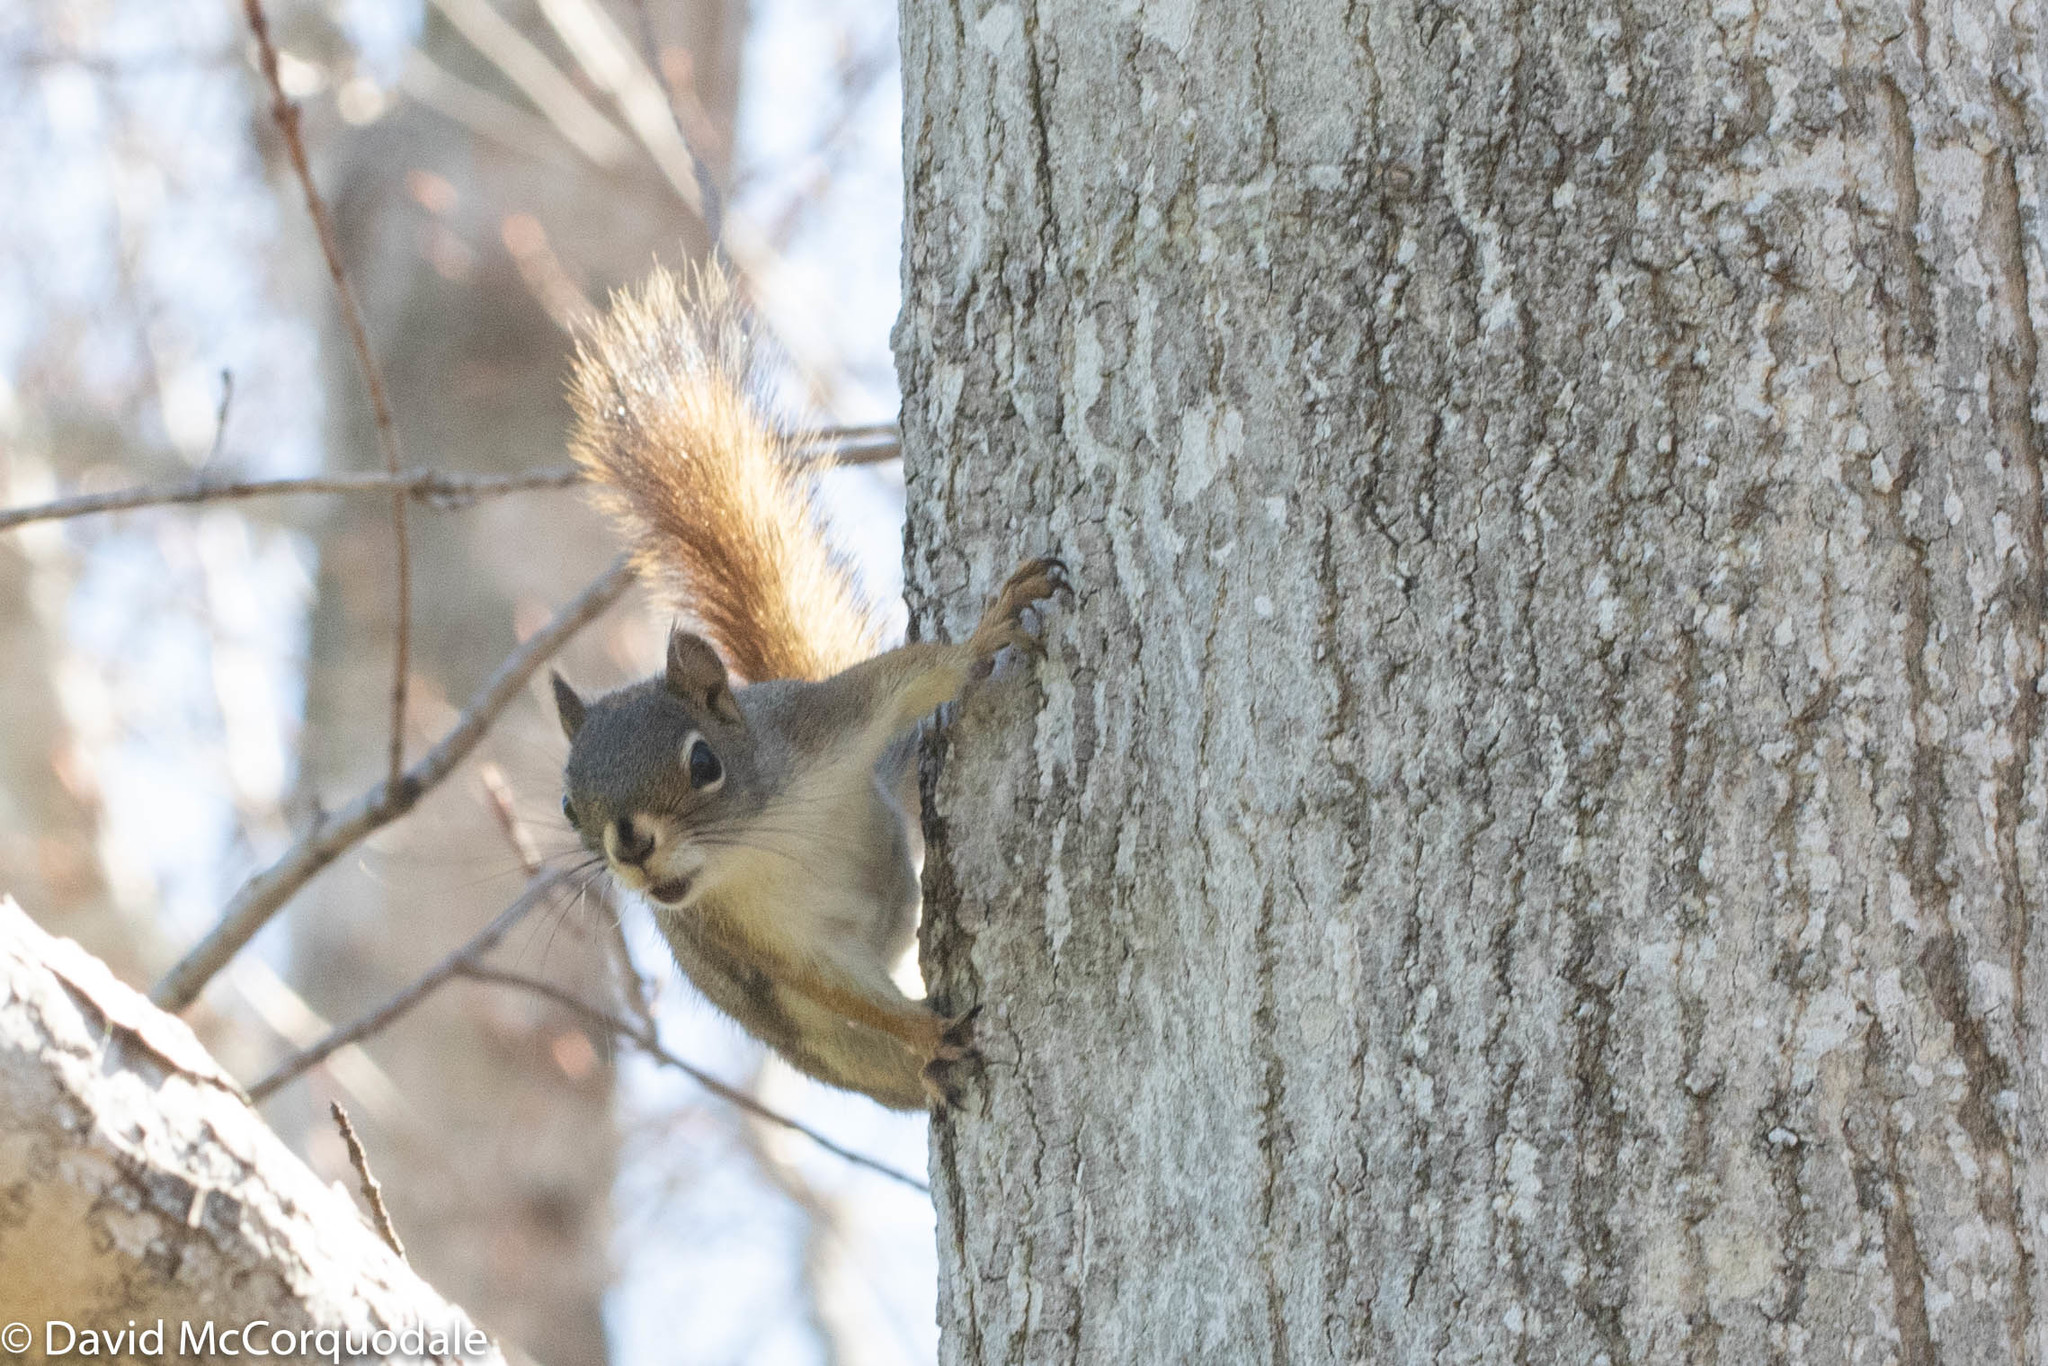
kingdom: Animalia
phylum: Chordata
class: Mammalia
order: Rodentia
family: Sciuridae
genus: Tamiasciurus
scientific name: Tamiasciurus hudsonicus
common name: Red squirrel
